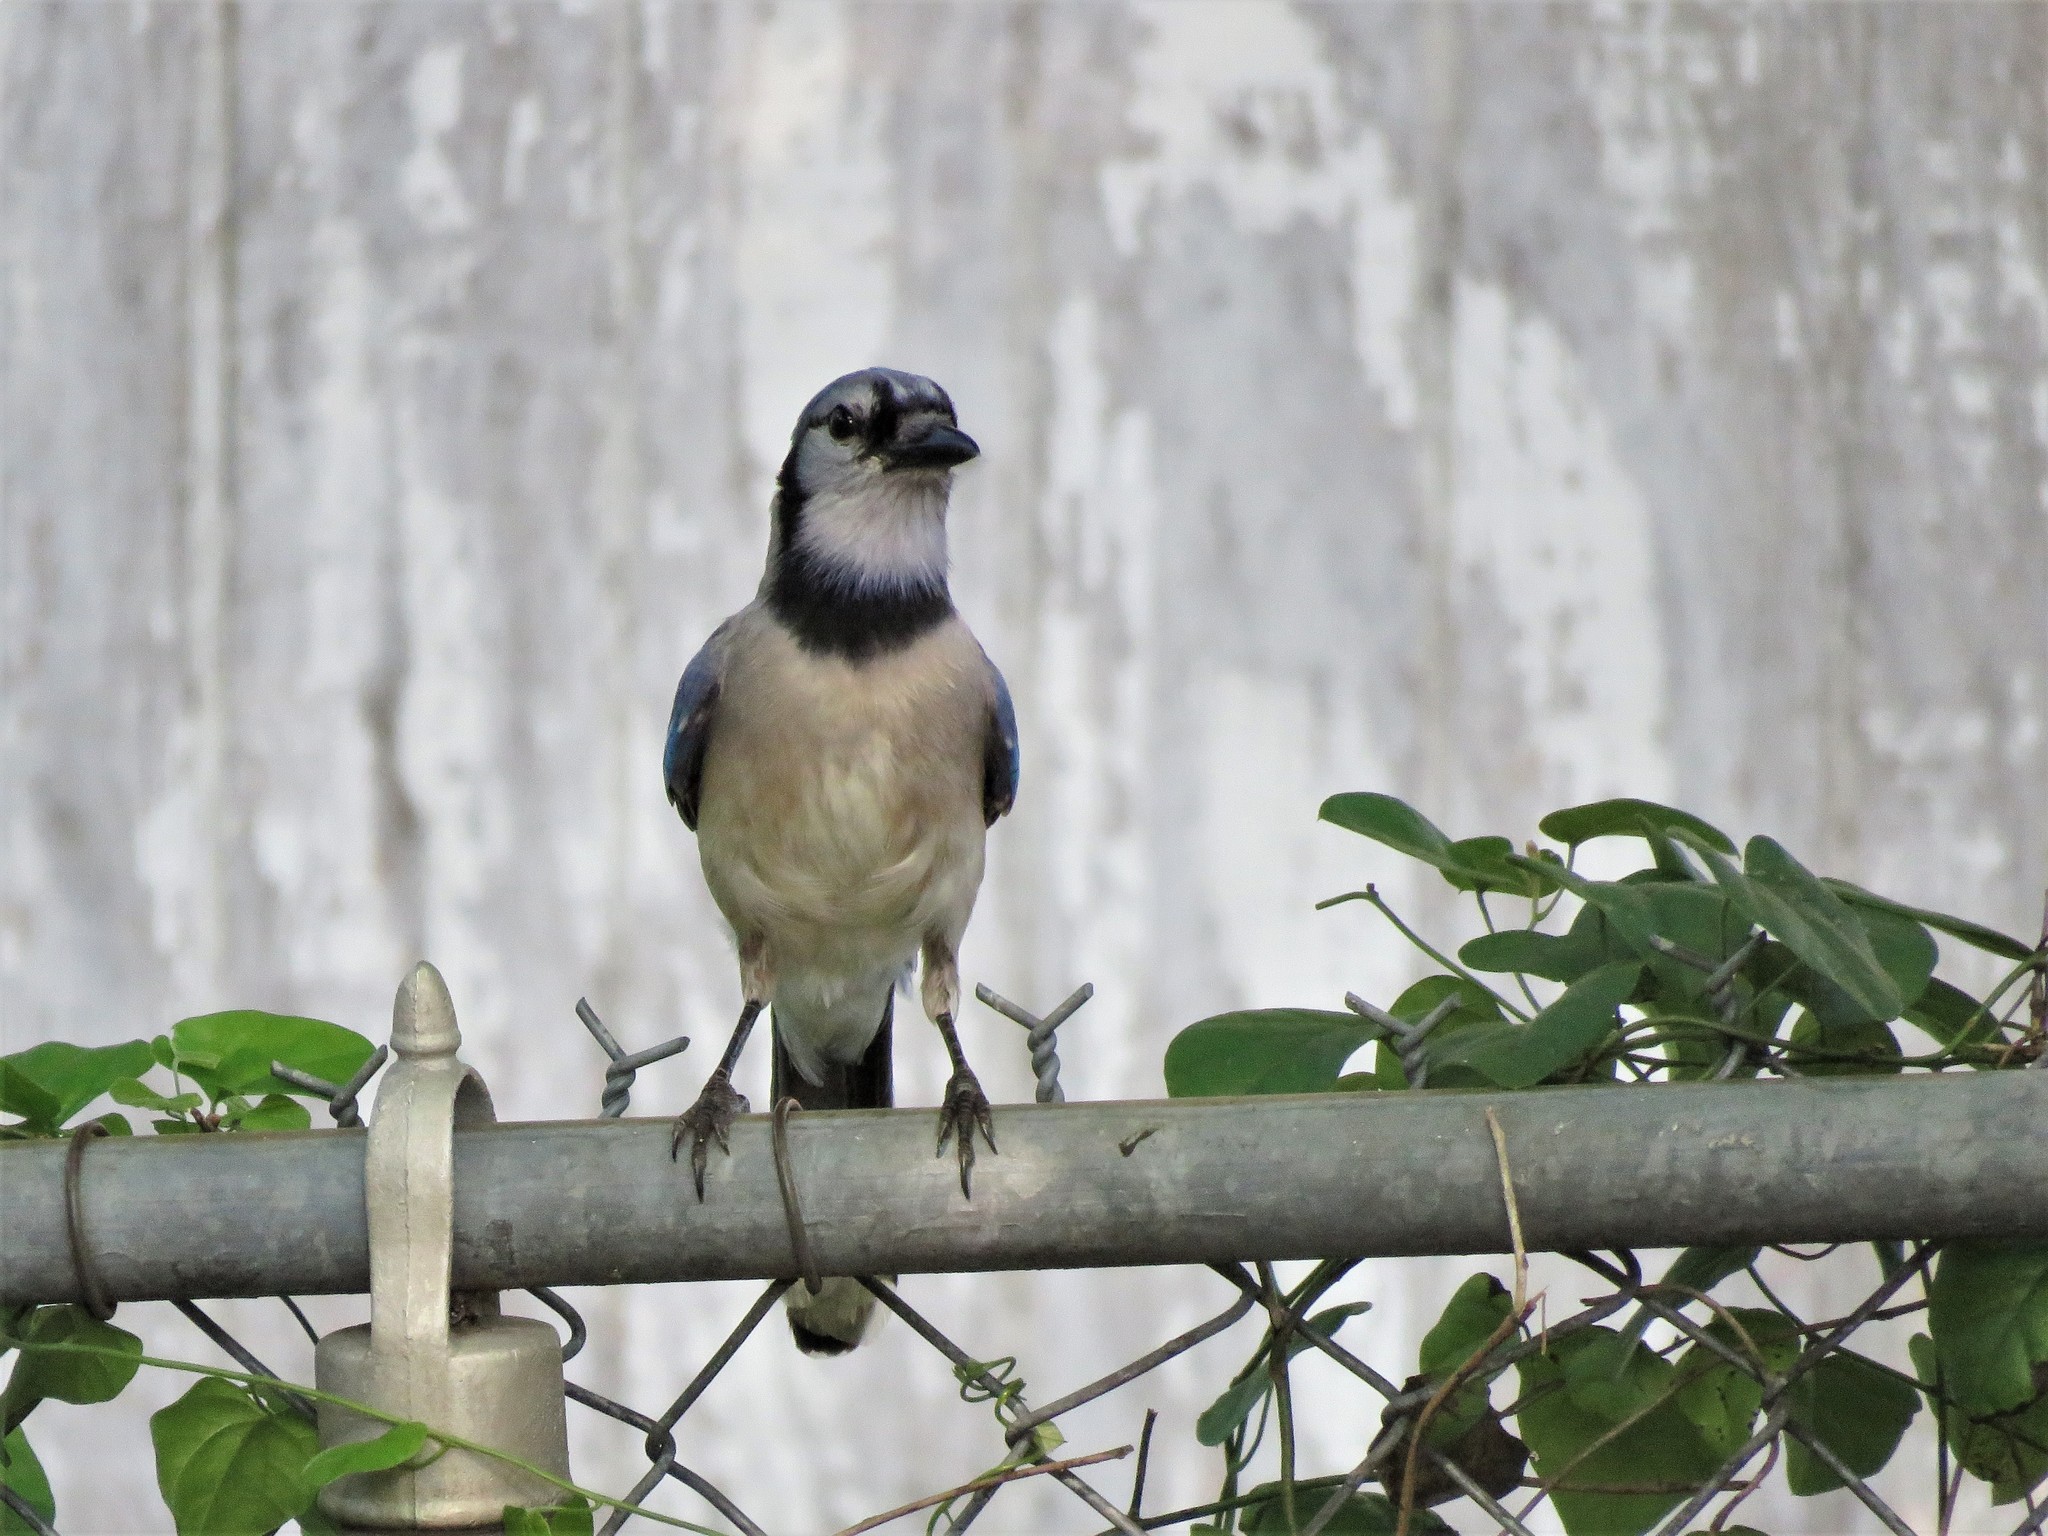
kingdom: Animalia
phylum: Chordata
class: Aves
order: Passeriformes
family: Corvidae
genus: Cyanocitta
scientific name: Cyanocitta cristata
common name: Blue jay
